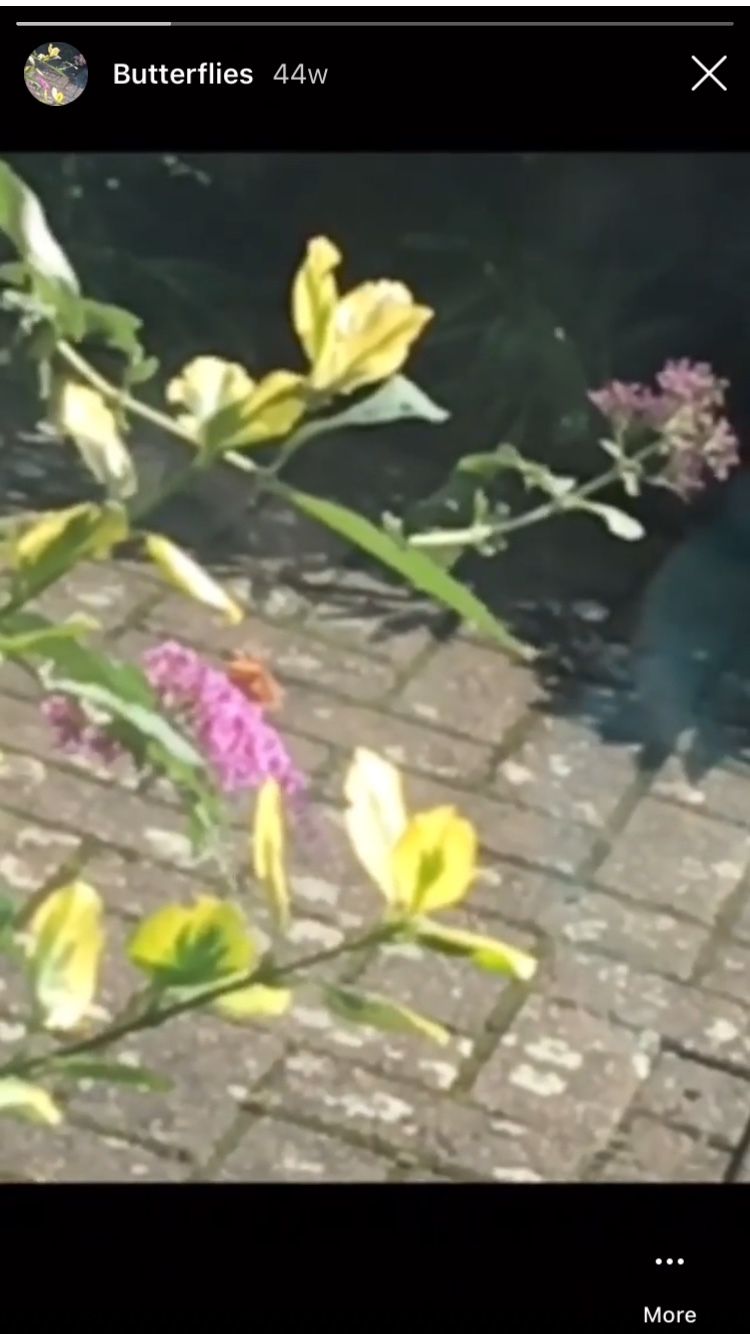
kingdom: Animalia
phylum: Arthropoda
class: Insecta
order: Lepidoptera
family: Nymphalidae
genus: Vanessa
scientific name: Vanessa cardui
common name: Painted lady
